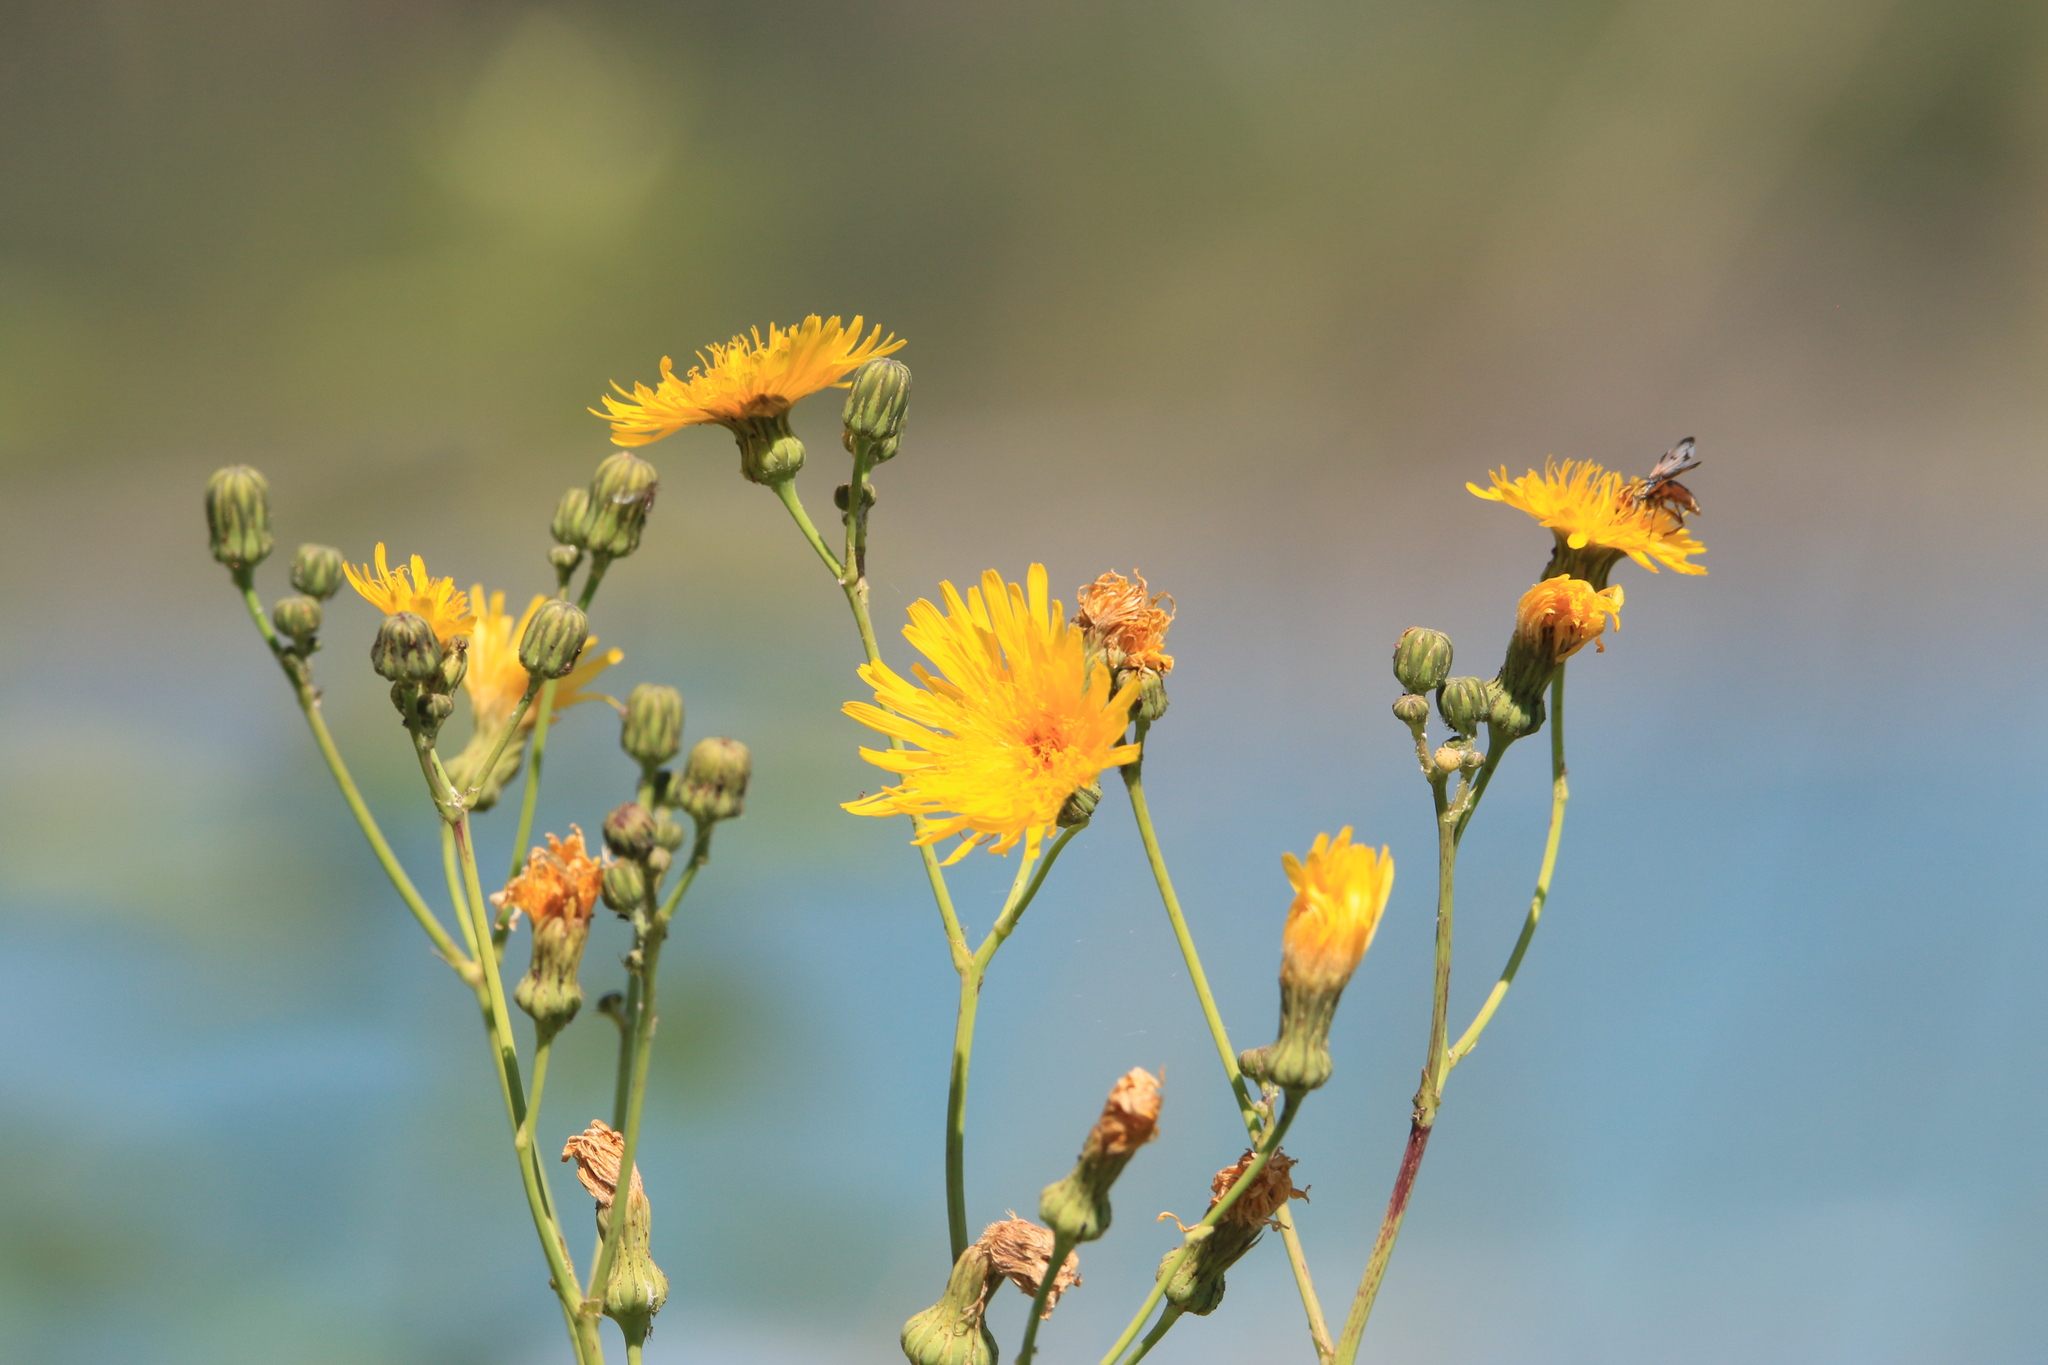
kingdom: Plantae
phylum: Tracheophyta
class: Magnoliopsida
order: Asterales
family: Asteraceae
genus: Sonchus
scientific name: Sonchus arvensis
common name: Perennial sow-thistle
